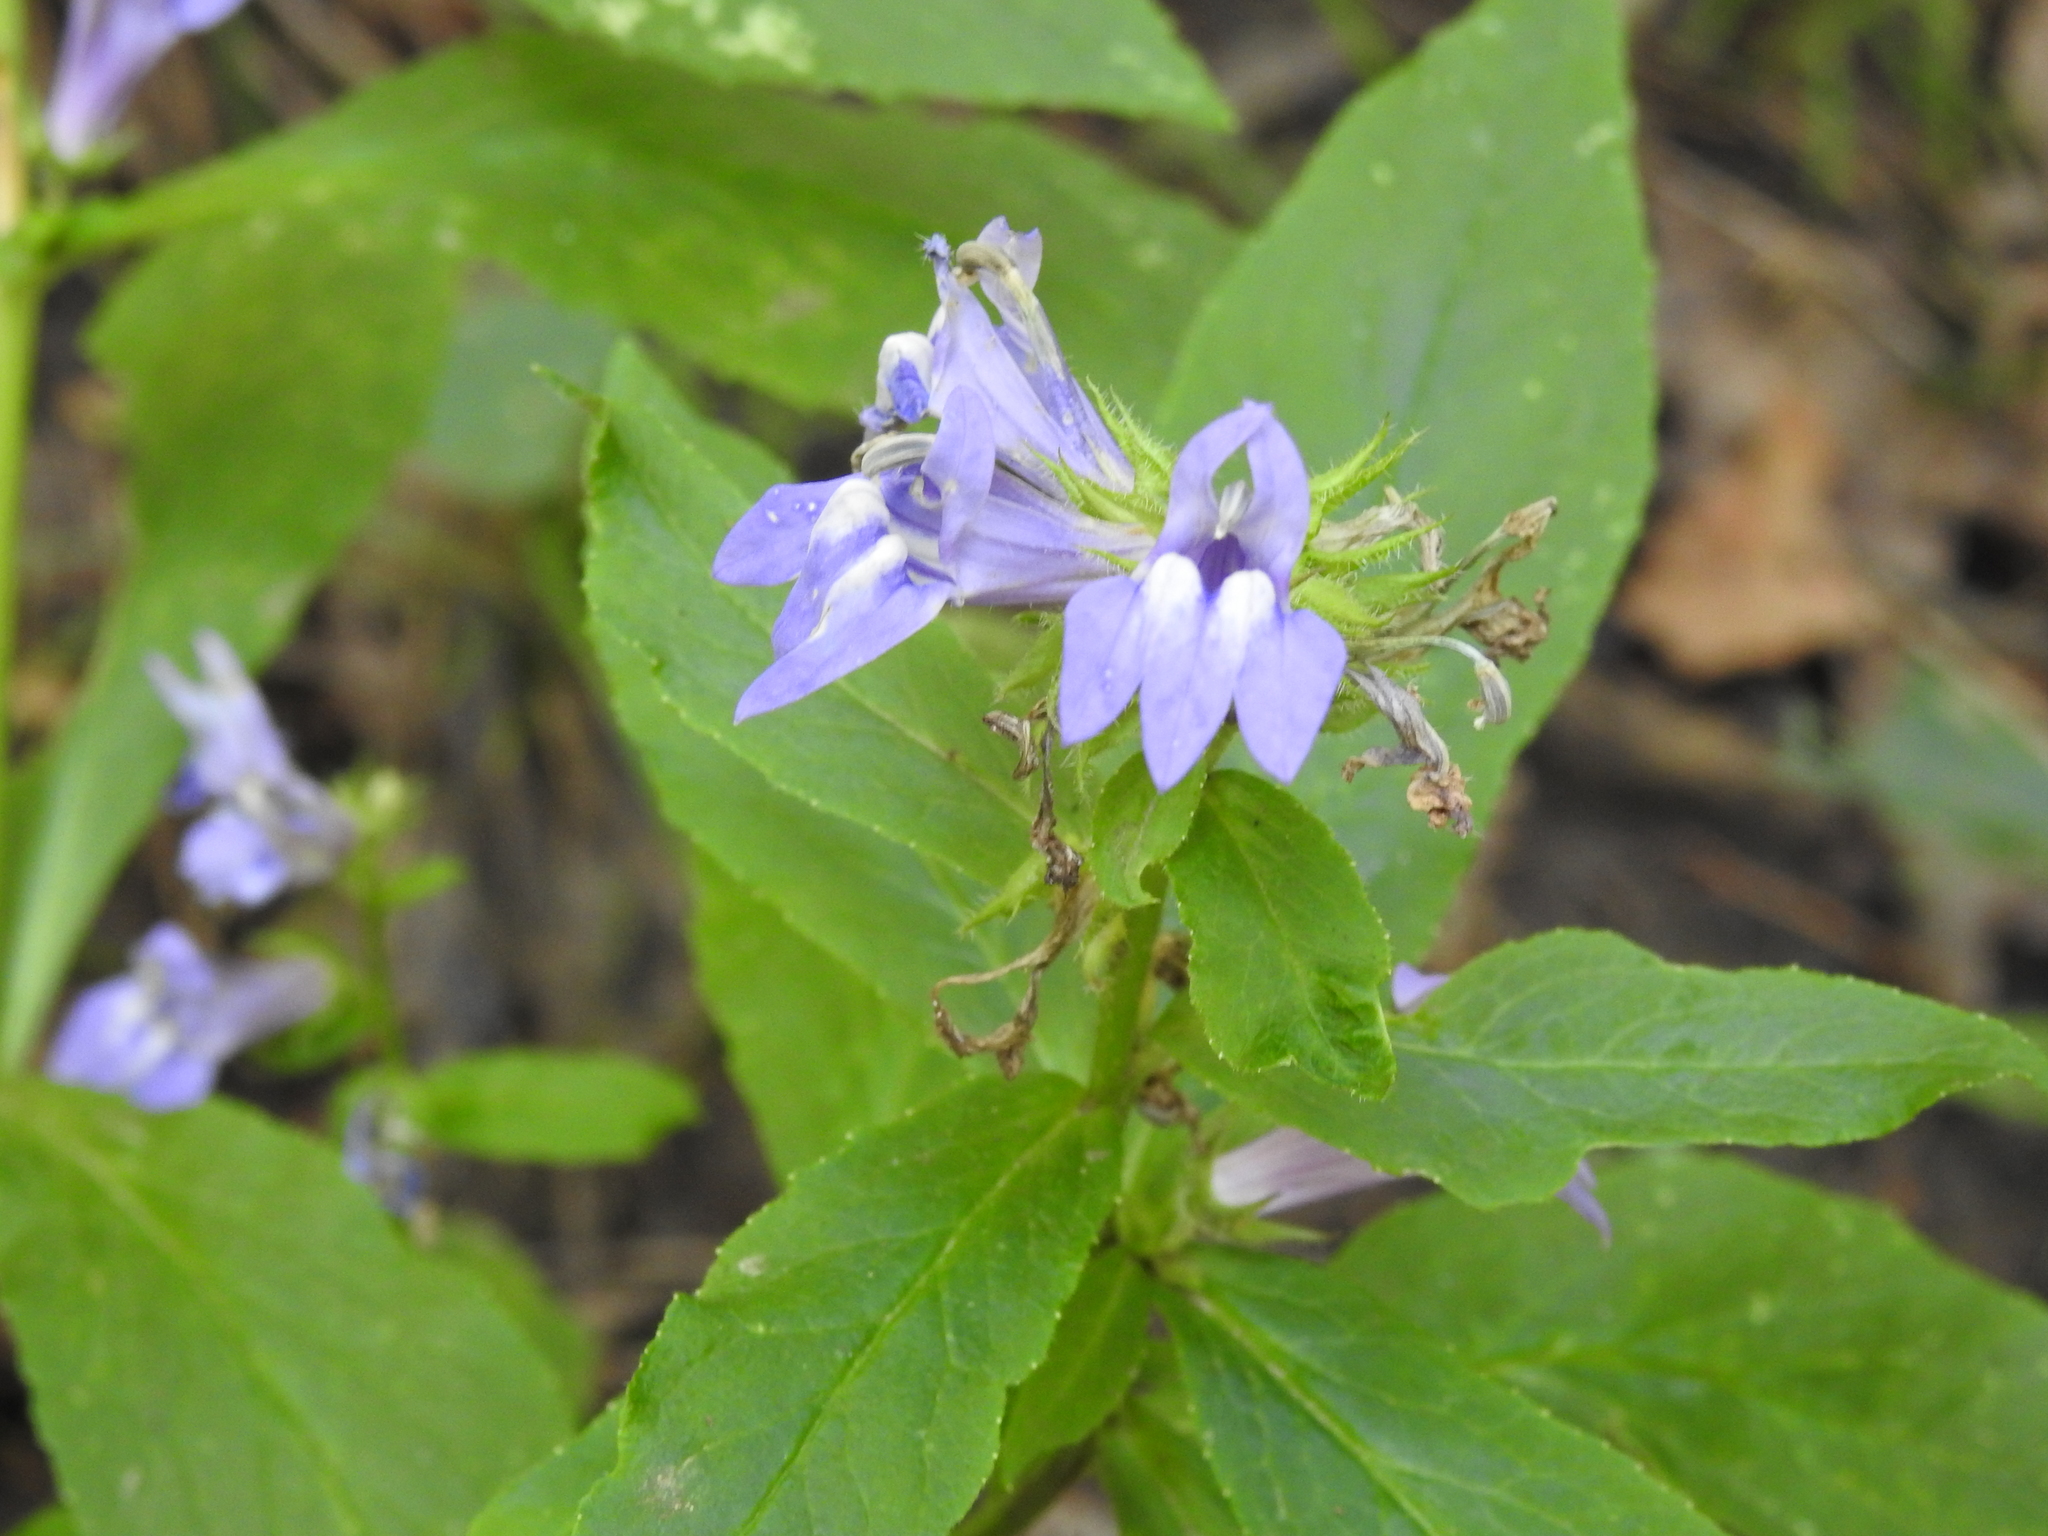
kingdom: Plantae
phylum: Tracheophyta
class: Magnoliopsida
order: Asterales
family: Campanulaceae
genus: Lobelia
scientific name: Lobelia siphilitica
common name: Great lobelia
